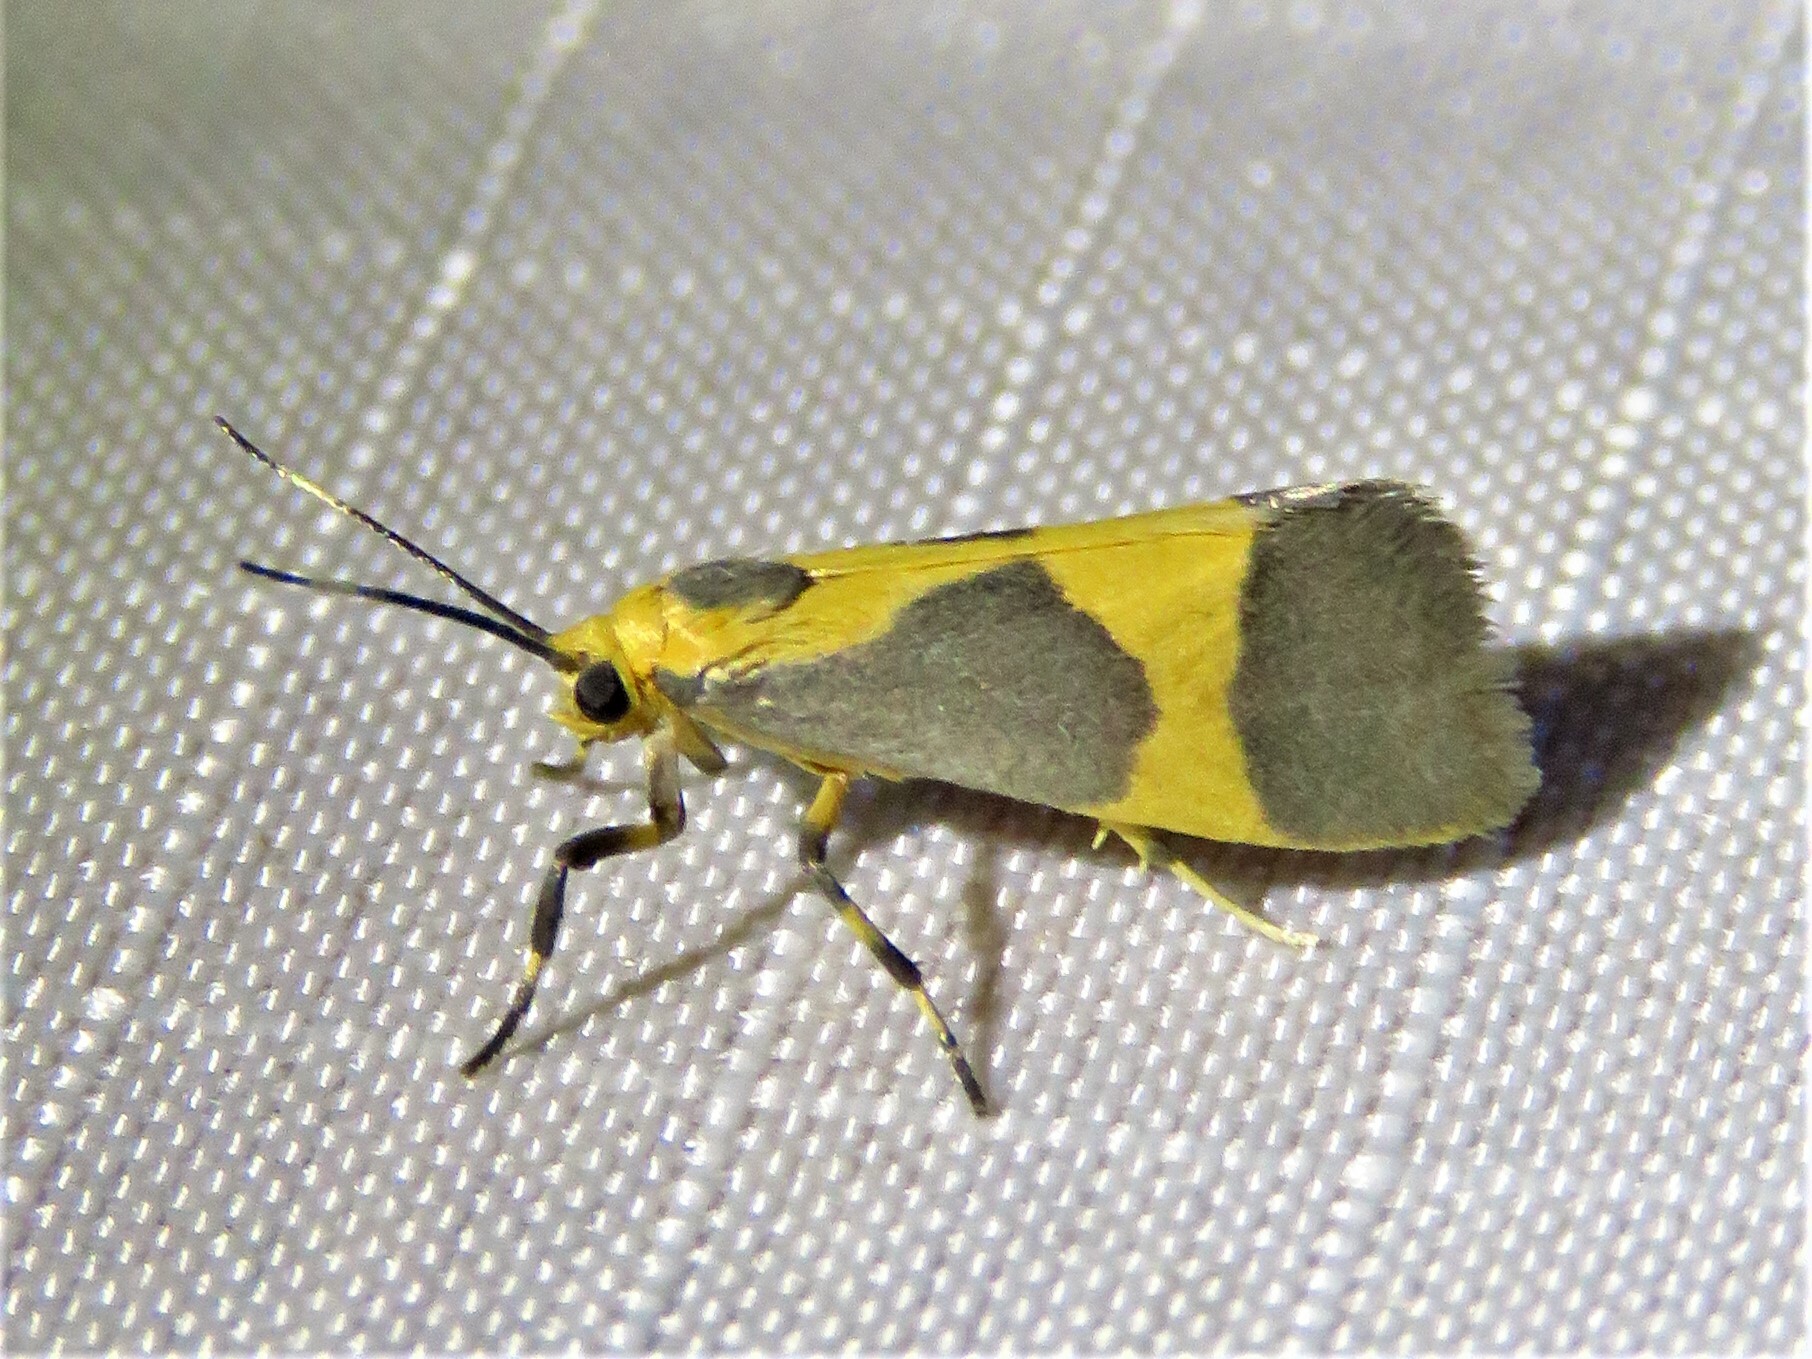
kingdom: Animalia
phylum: Arthropoda
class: Insecta
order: Lepidoptera
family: Erebidae
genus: Cisthene
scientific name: Cisthene unifascia
